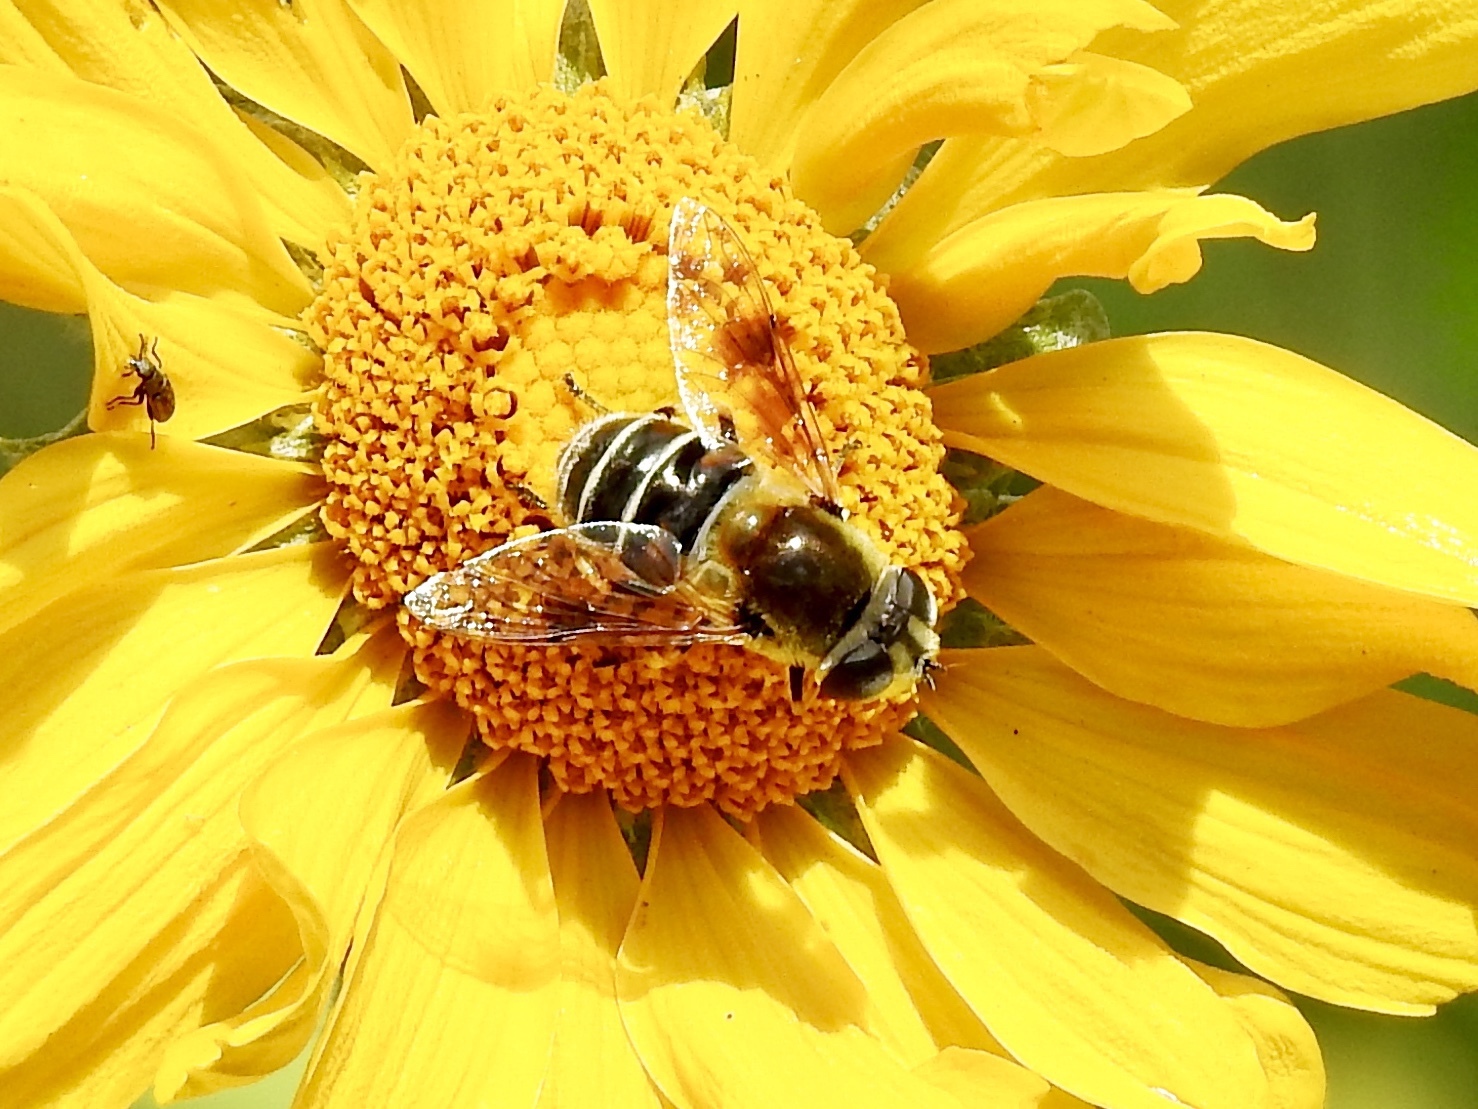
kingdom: Animalia
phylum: Arthropoda
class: Insecta
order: Diptera
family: Syrphidae
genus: Eristalis
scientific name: Eristalis stipator
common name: Yellow-shouldered drone fly
